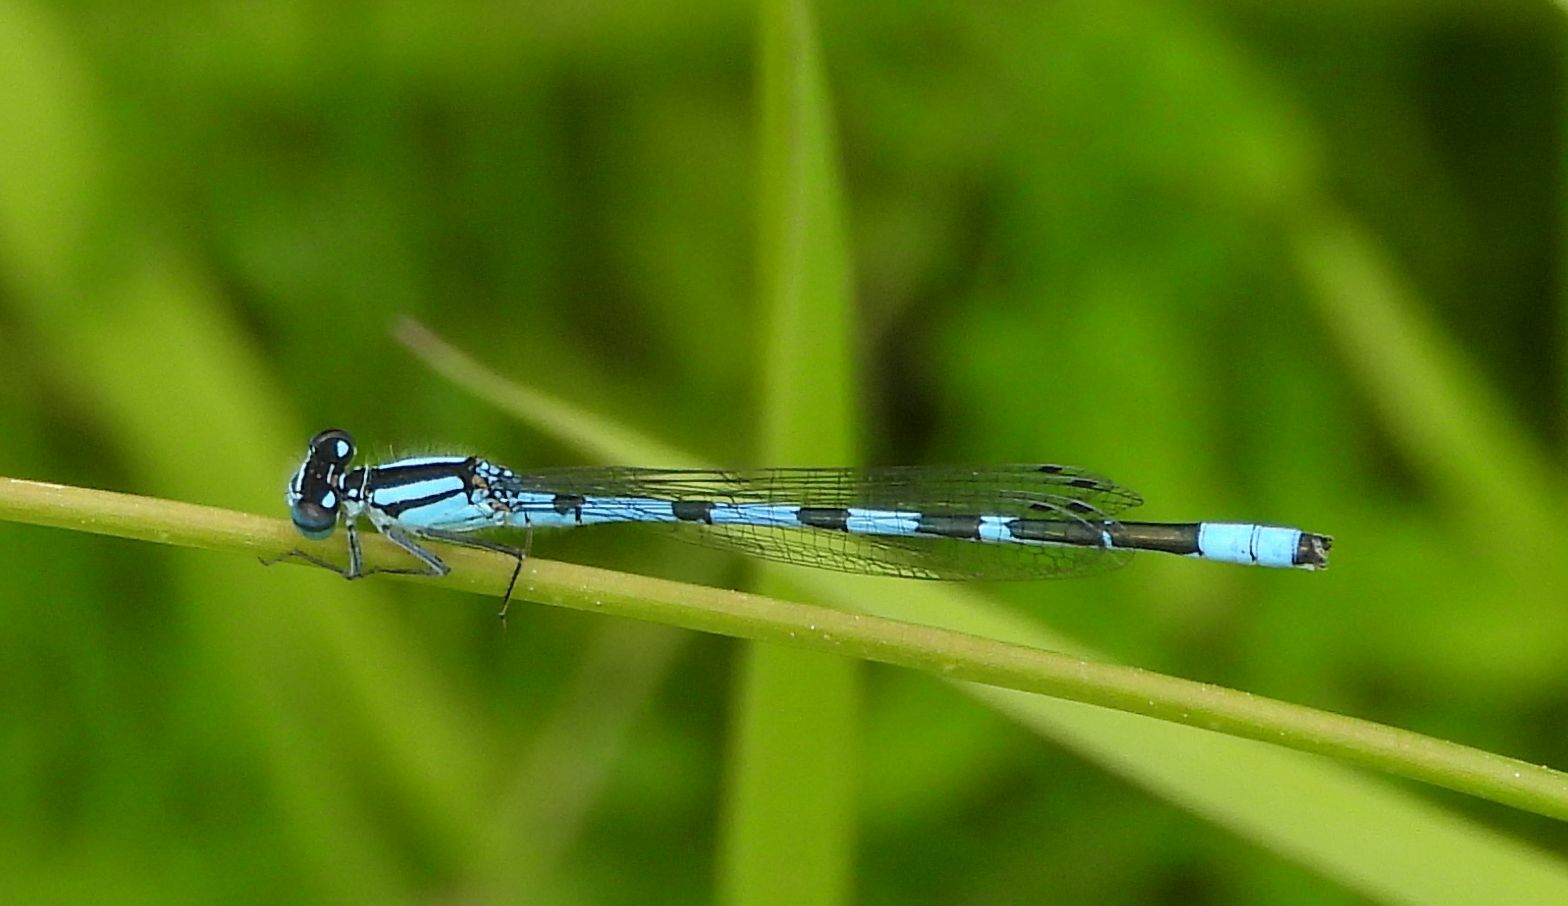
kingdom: Animalia
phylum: Arthropoda
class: Insecta
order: Odonata
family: Coenagrionidae
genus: Enallagma
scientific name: Enallagma ebrium
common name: Marsh bluet
